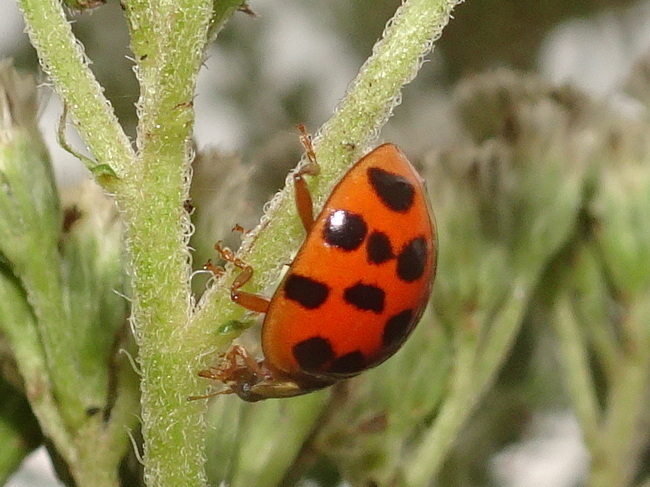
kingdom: Animalia
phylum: Arthropoda
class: Insecta
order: Coleoptera
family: Coccinellidae
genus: Harmonia
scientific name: Harmonia axyridis
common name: Harlequin ladybird
